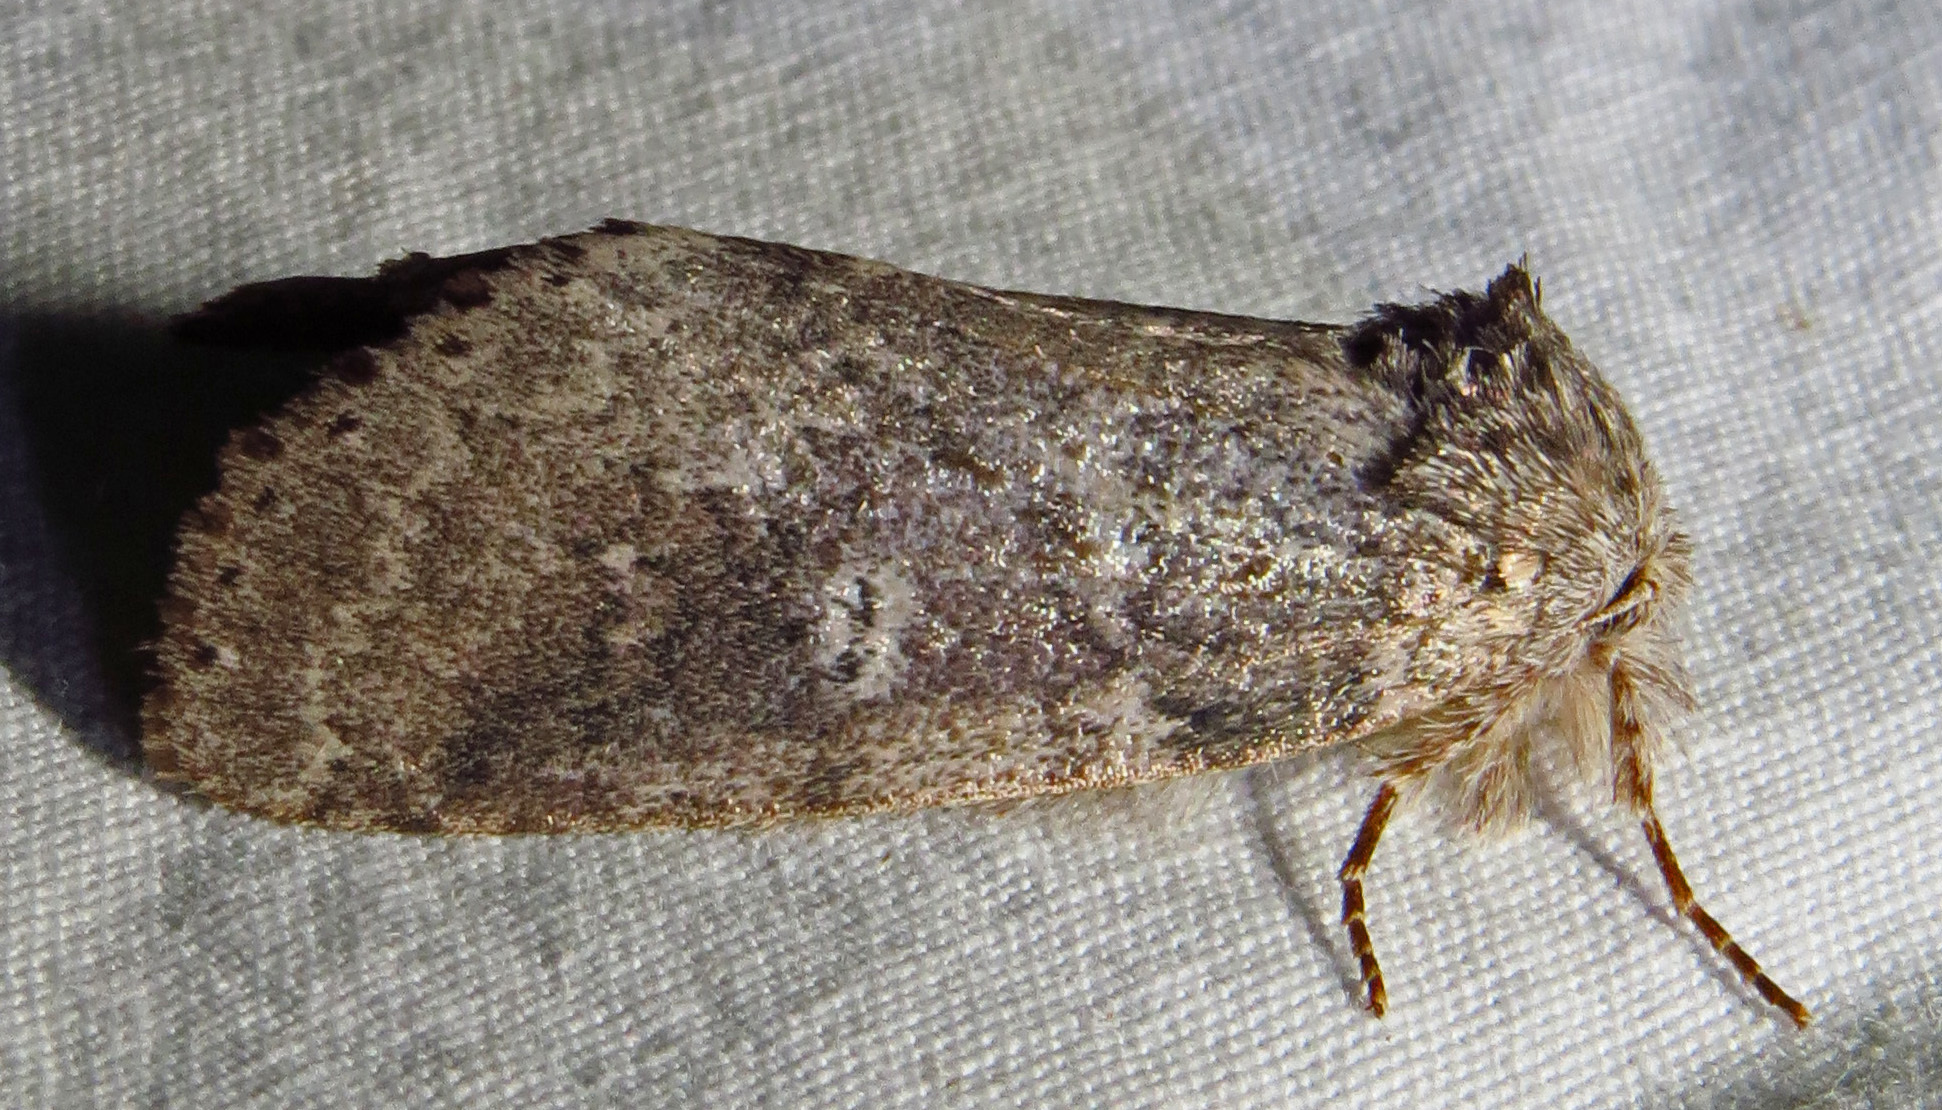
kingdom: Animalia
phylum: Arthropoda
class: Insecta
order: Lepidoptera
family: Notodontidae
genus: Lochmaeus
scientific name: Lochmaeus manteo
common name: Variable oakleaf caterpillar moth
